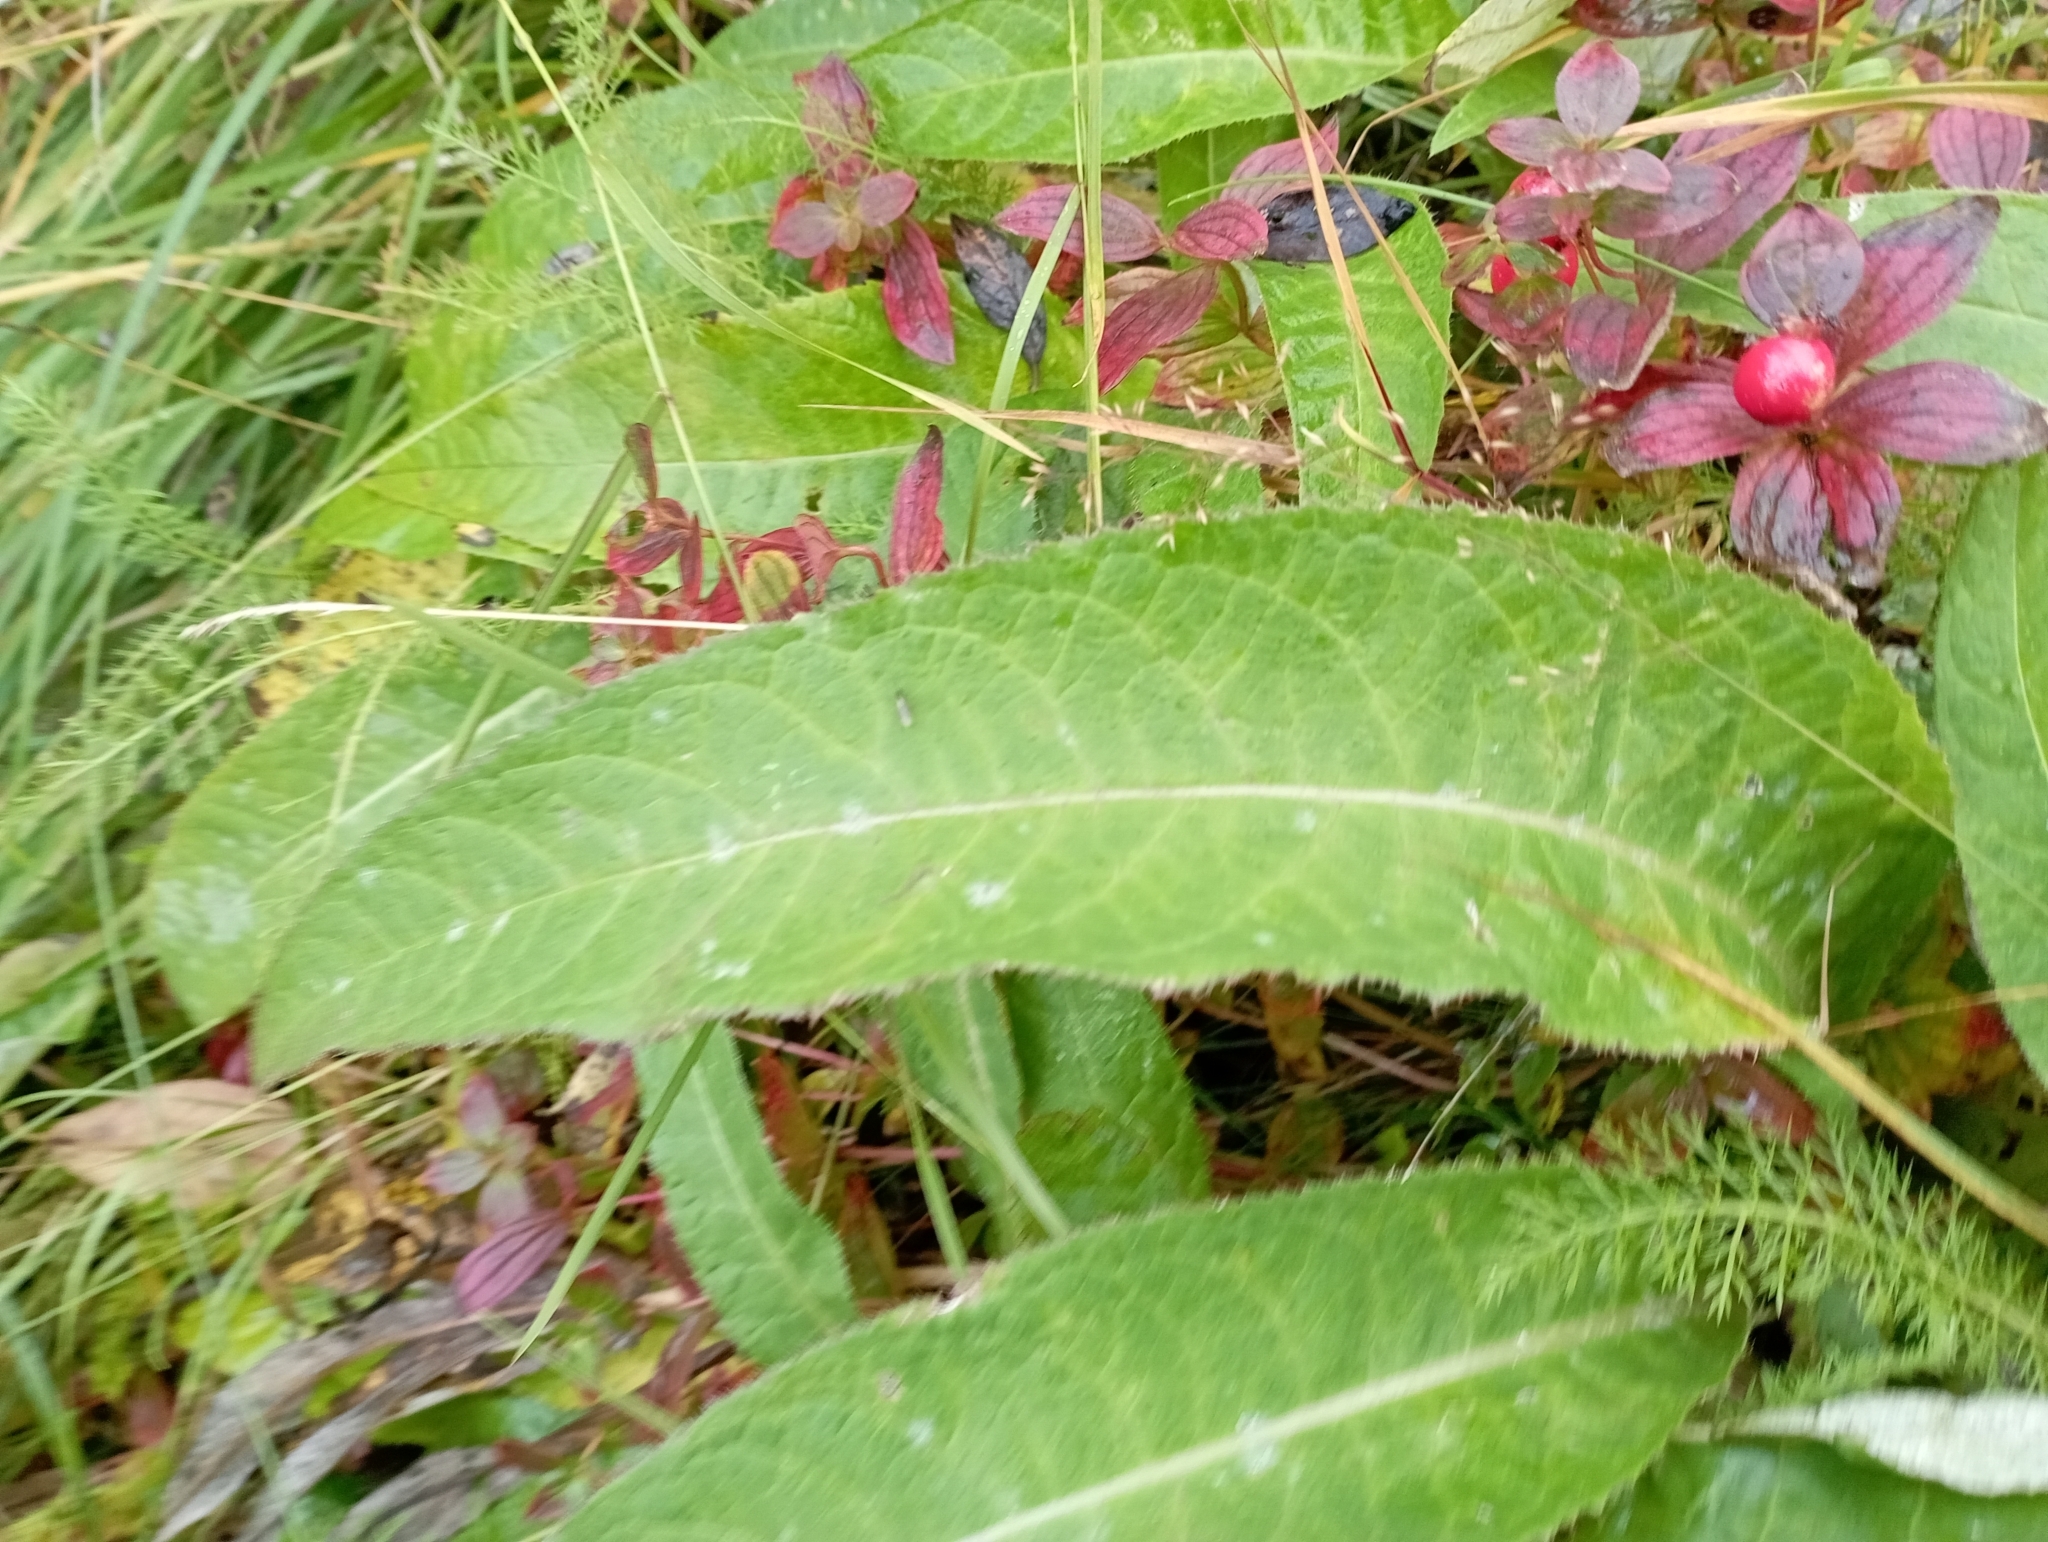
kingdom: Plantae
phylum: Tracheophyta
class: Magnoliopsida
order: Asterales
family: Asteraceae
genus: Cirsium
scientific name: Cirsium heterophyllum
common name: Melancholy thistle
